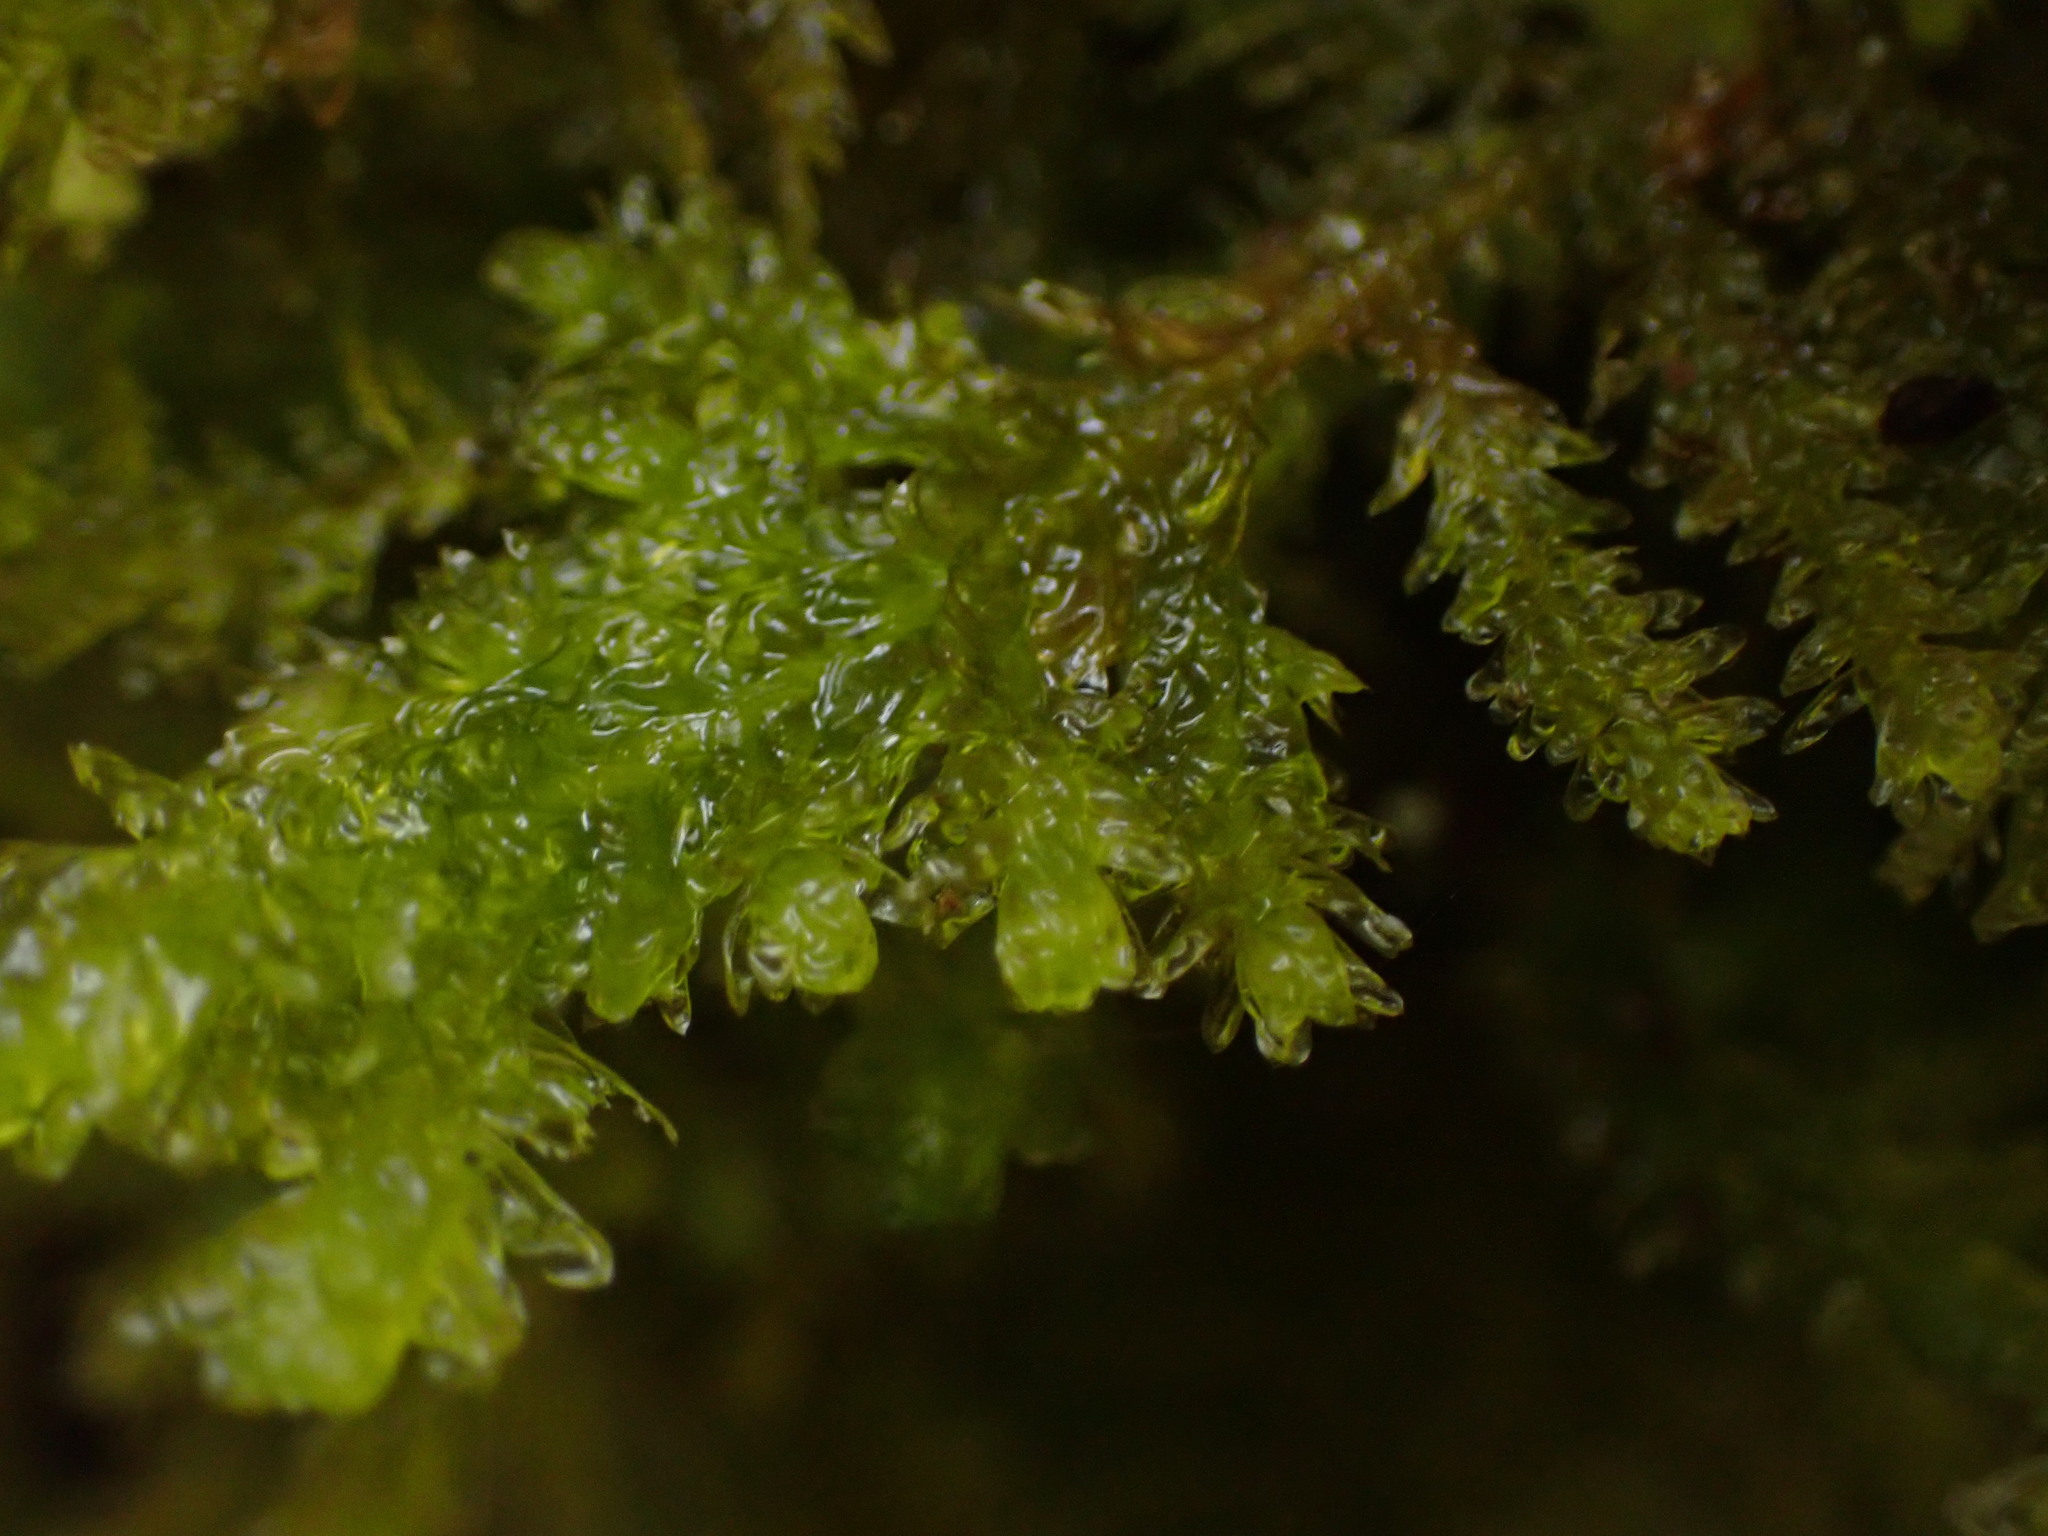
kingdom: Plantae
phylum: Bryophyta
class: Bryopsida
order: Hypnales
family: Neckeraceae
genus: Metaneckera
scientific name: Metaneckera menziesii
